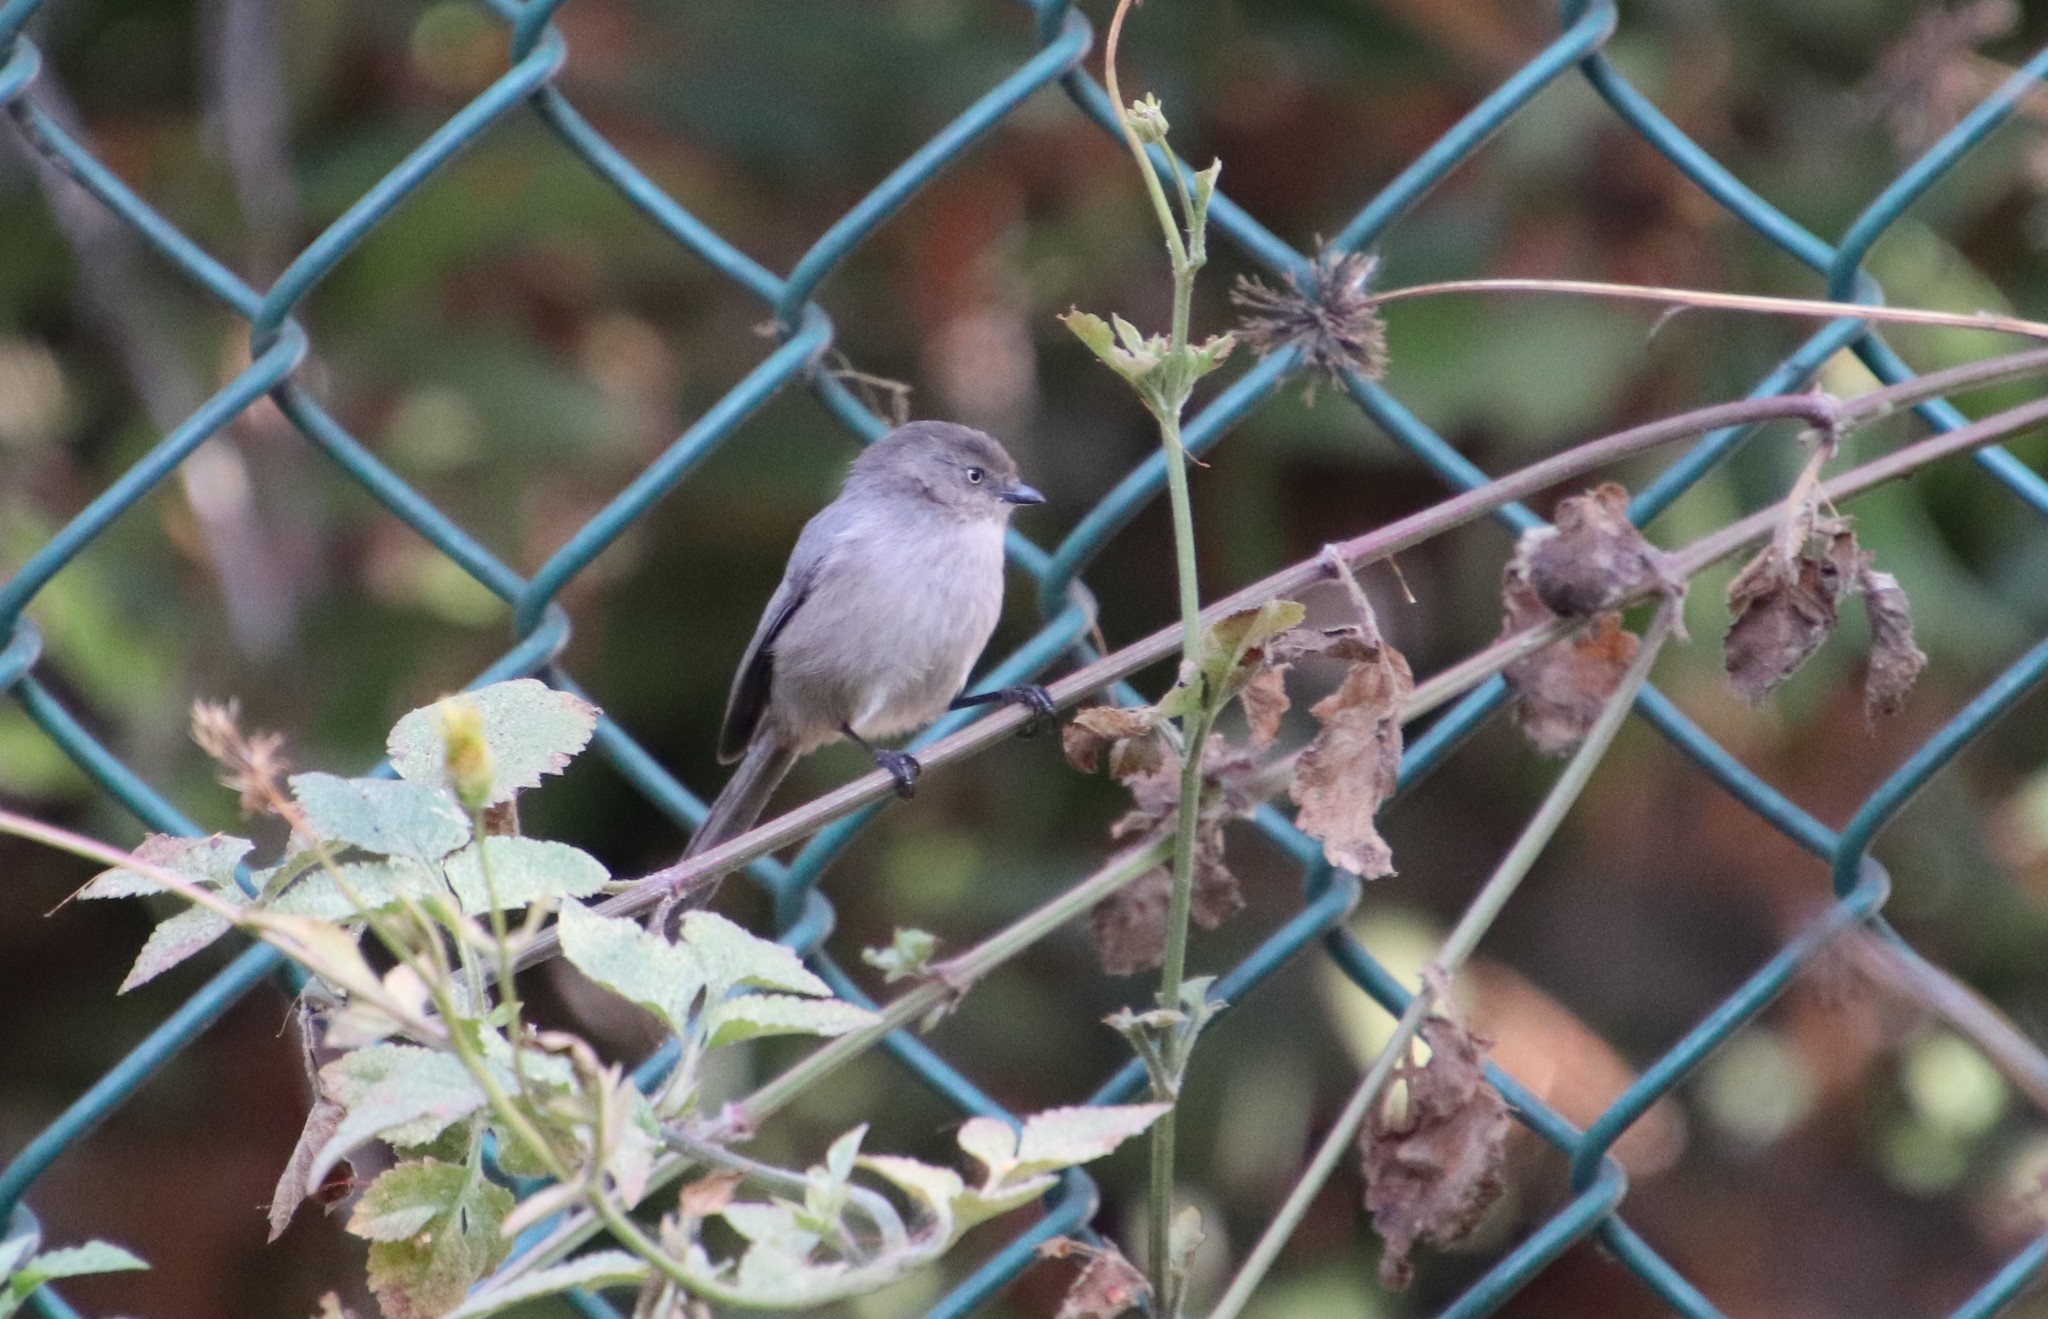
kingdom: Animalia
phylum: Chordata
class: Aves
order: Passeriformes
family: Aegithalidae
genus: Psaltriparus
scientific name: Psaltriparus minimus
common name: American bushtit
